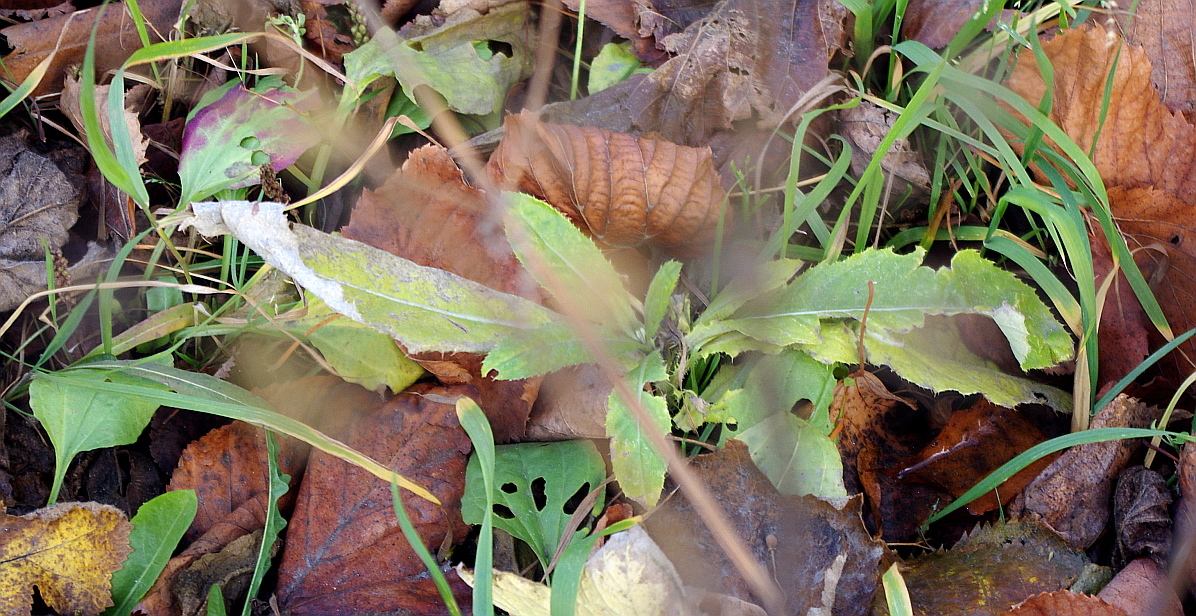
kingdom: Plantae
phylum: Tracheophyta
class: Magnoliopsida
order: Asterales
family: Asteraceae
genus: Cirsium
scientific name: Cirsium arvense
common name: Creeping thistle
